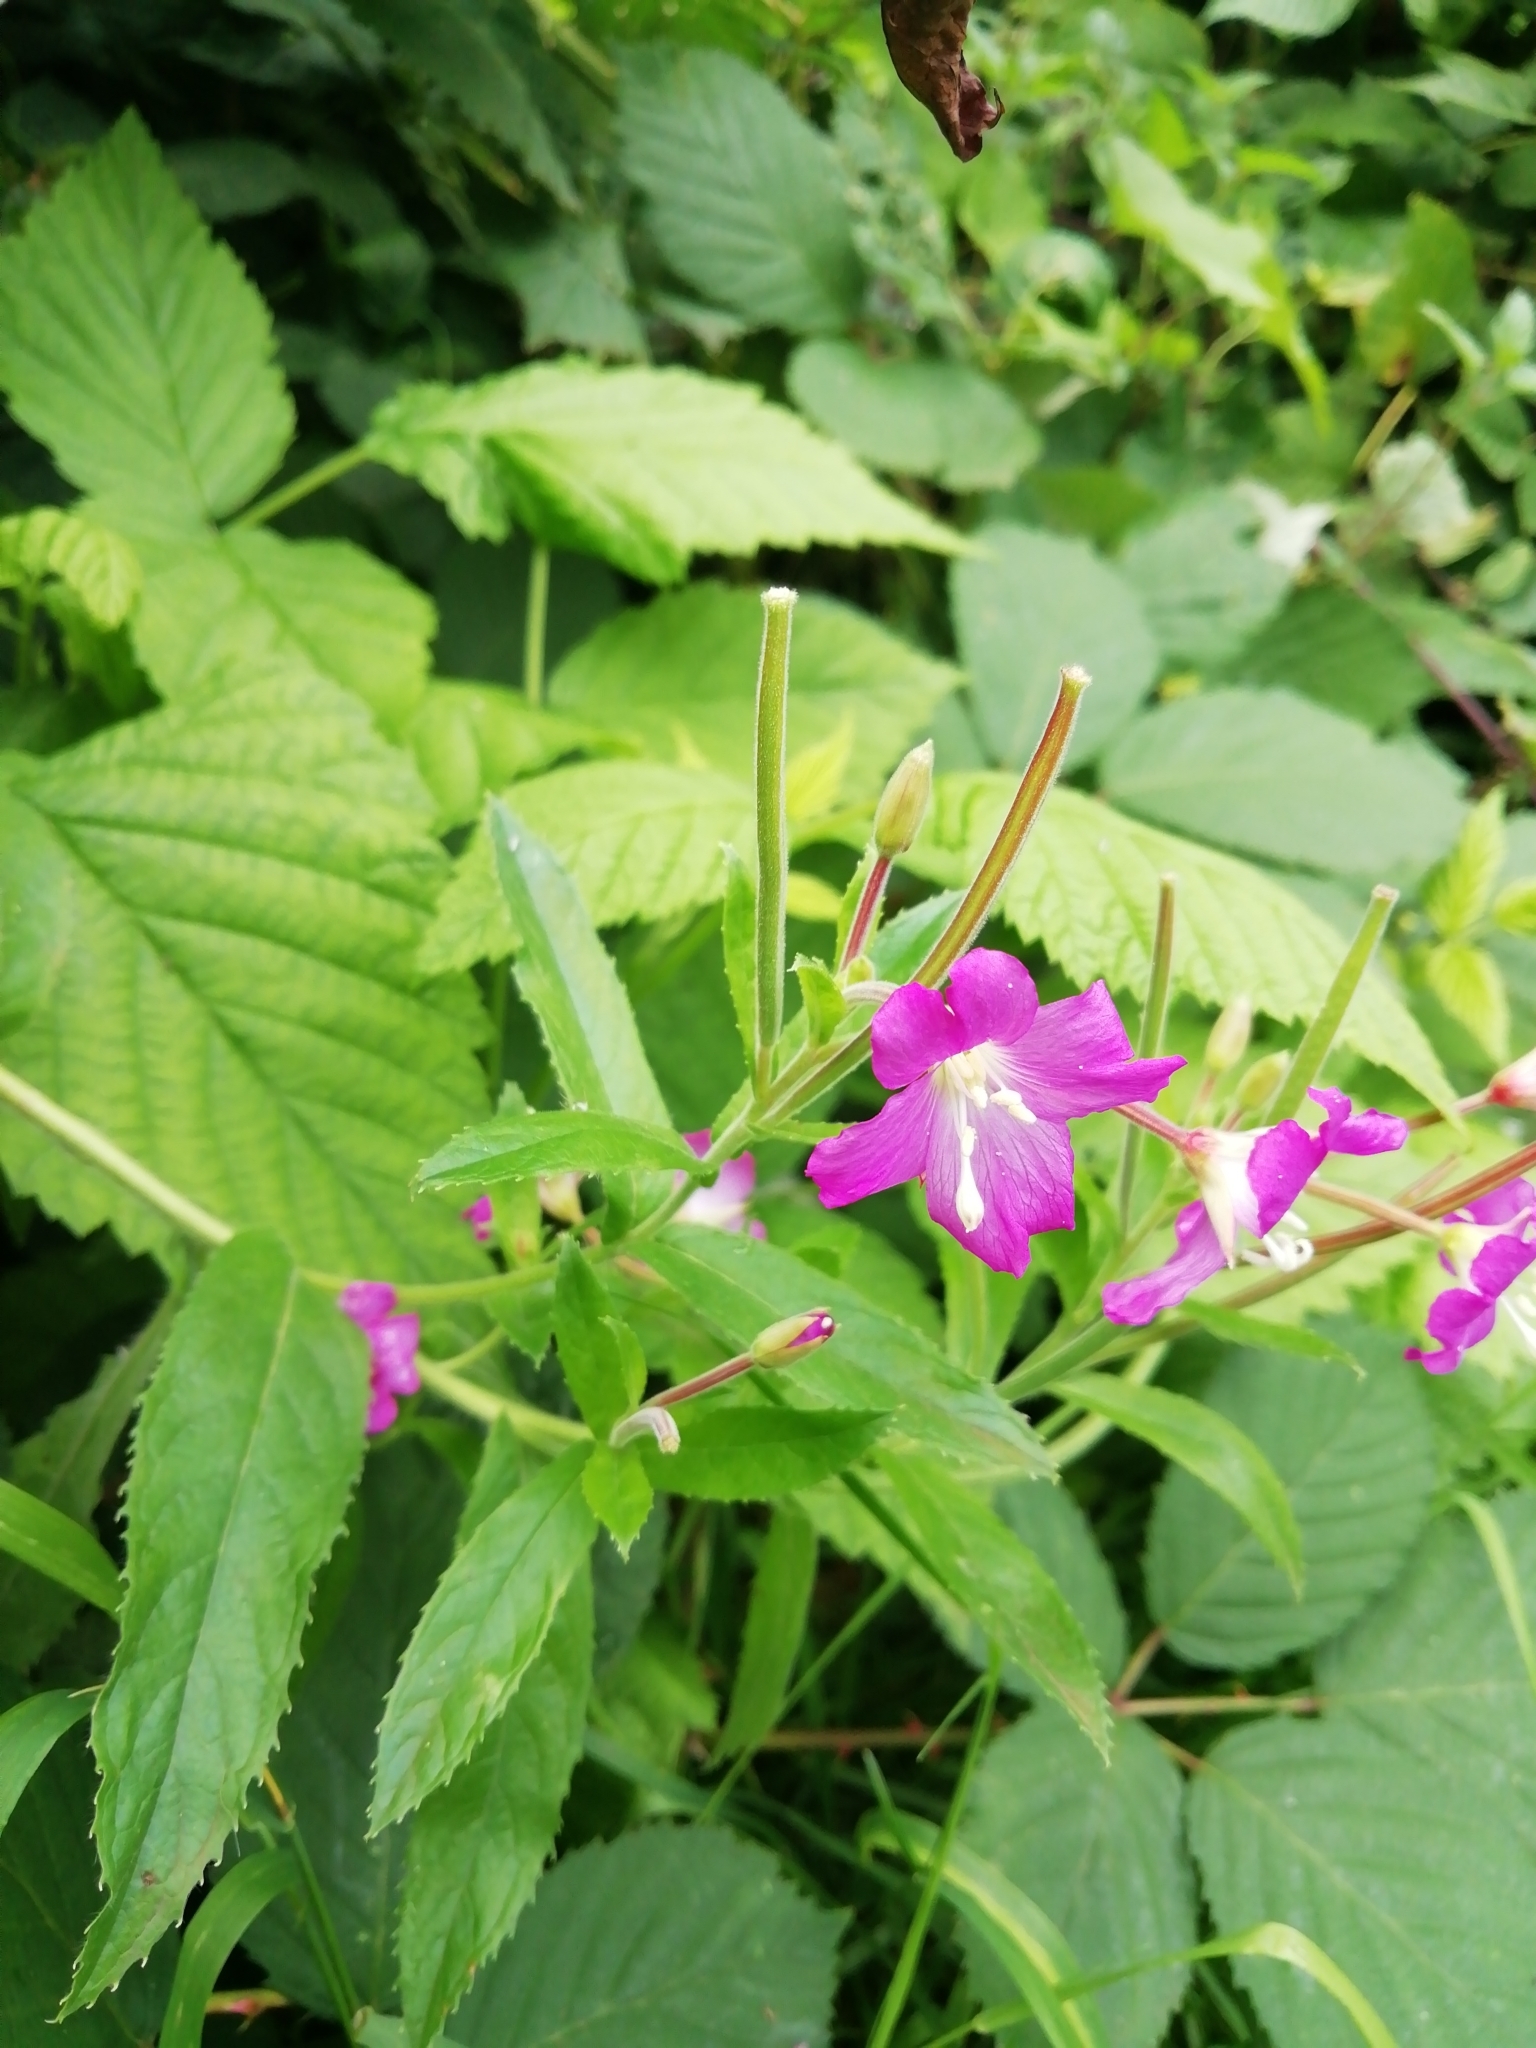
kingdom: Plantae
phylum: Tracheophyta
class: Magnoliopsida
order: Myrtales
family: Onagraceae
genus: Epilobium
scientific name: Epilobium hirsutum
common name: Great willowherb
